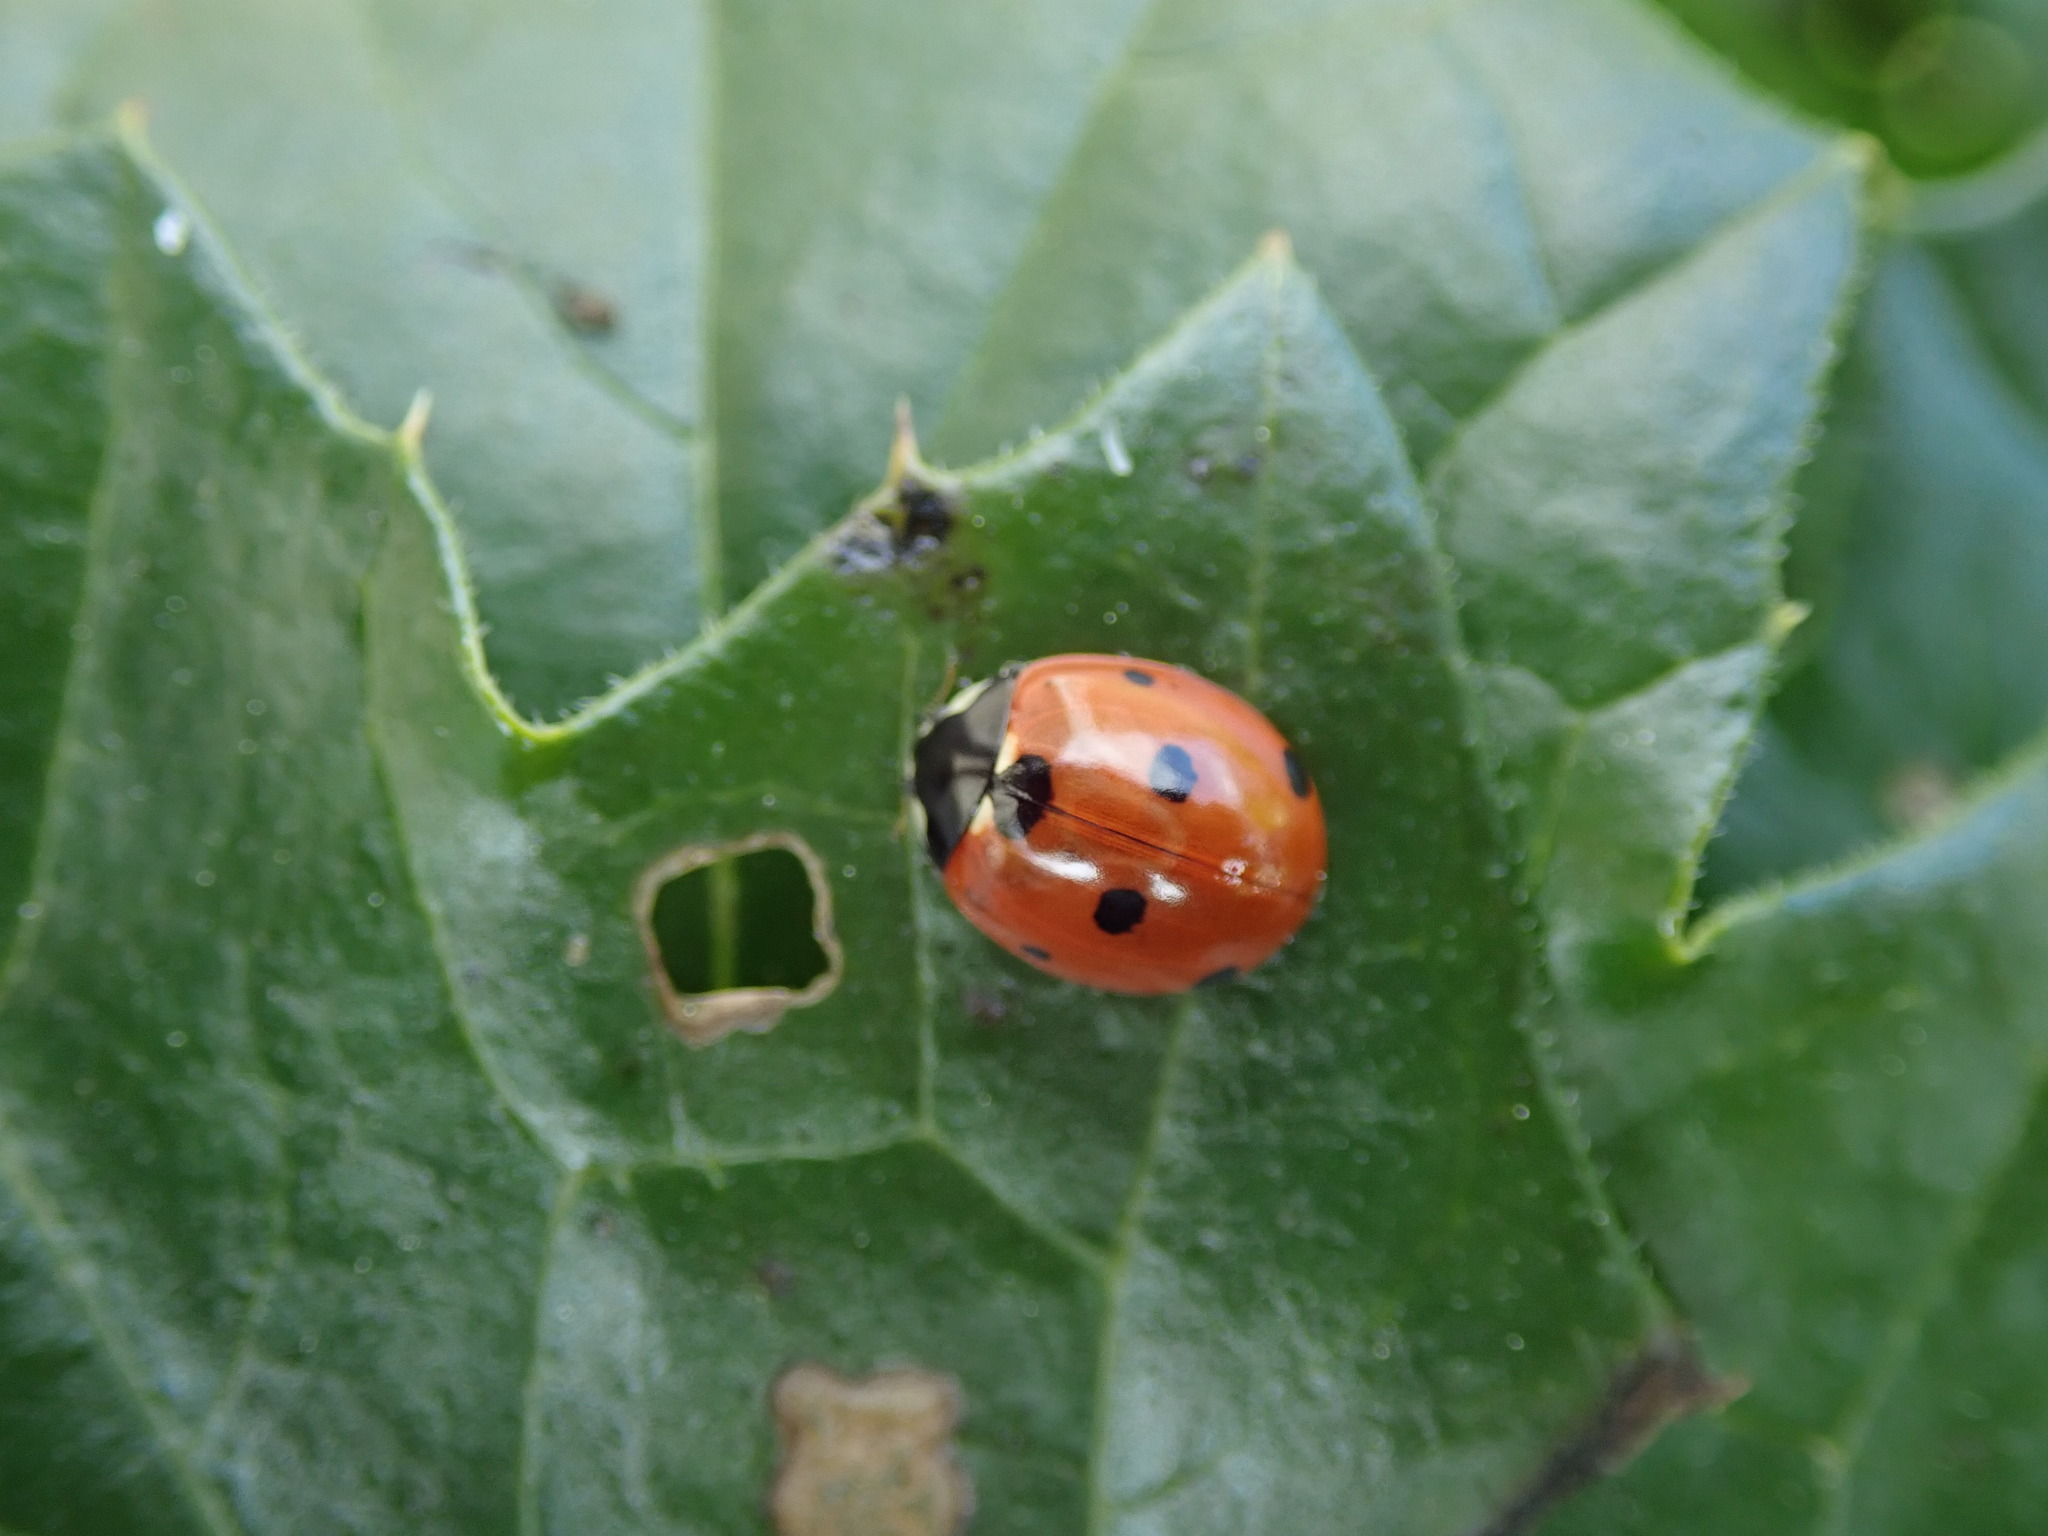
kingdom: Animalia
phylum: Arthropoda
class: Insecta
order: Coleoptera
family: Coccinellidae
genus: Coccinella
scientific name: Coccinella septempunctata
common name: Sevenspotted lady beetle
